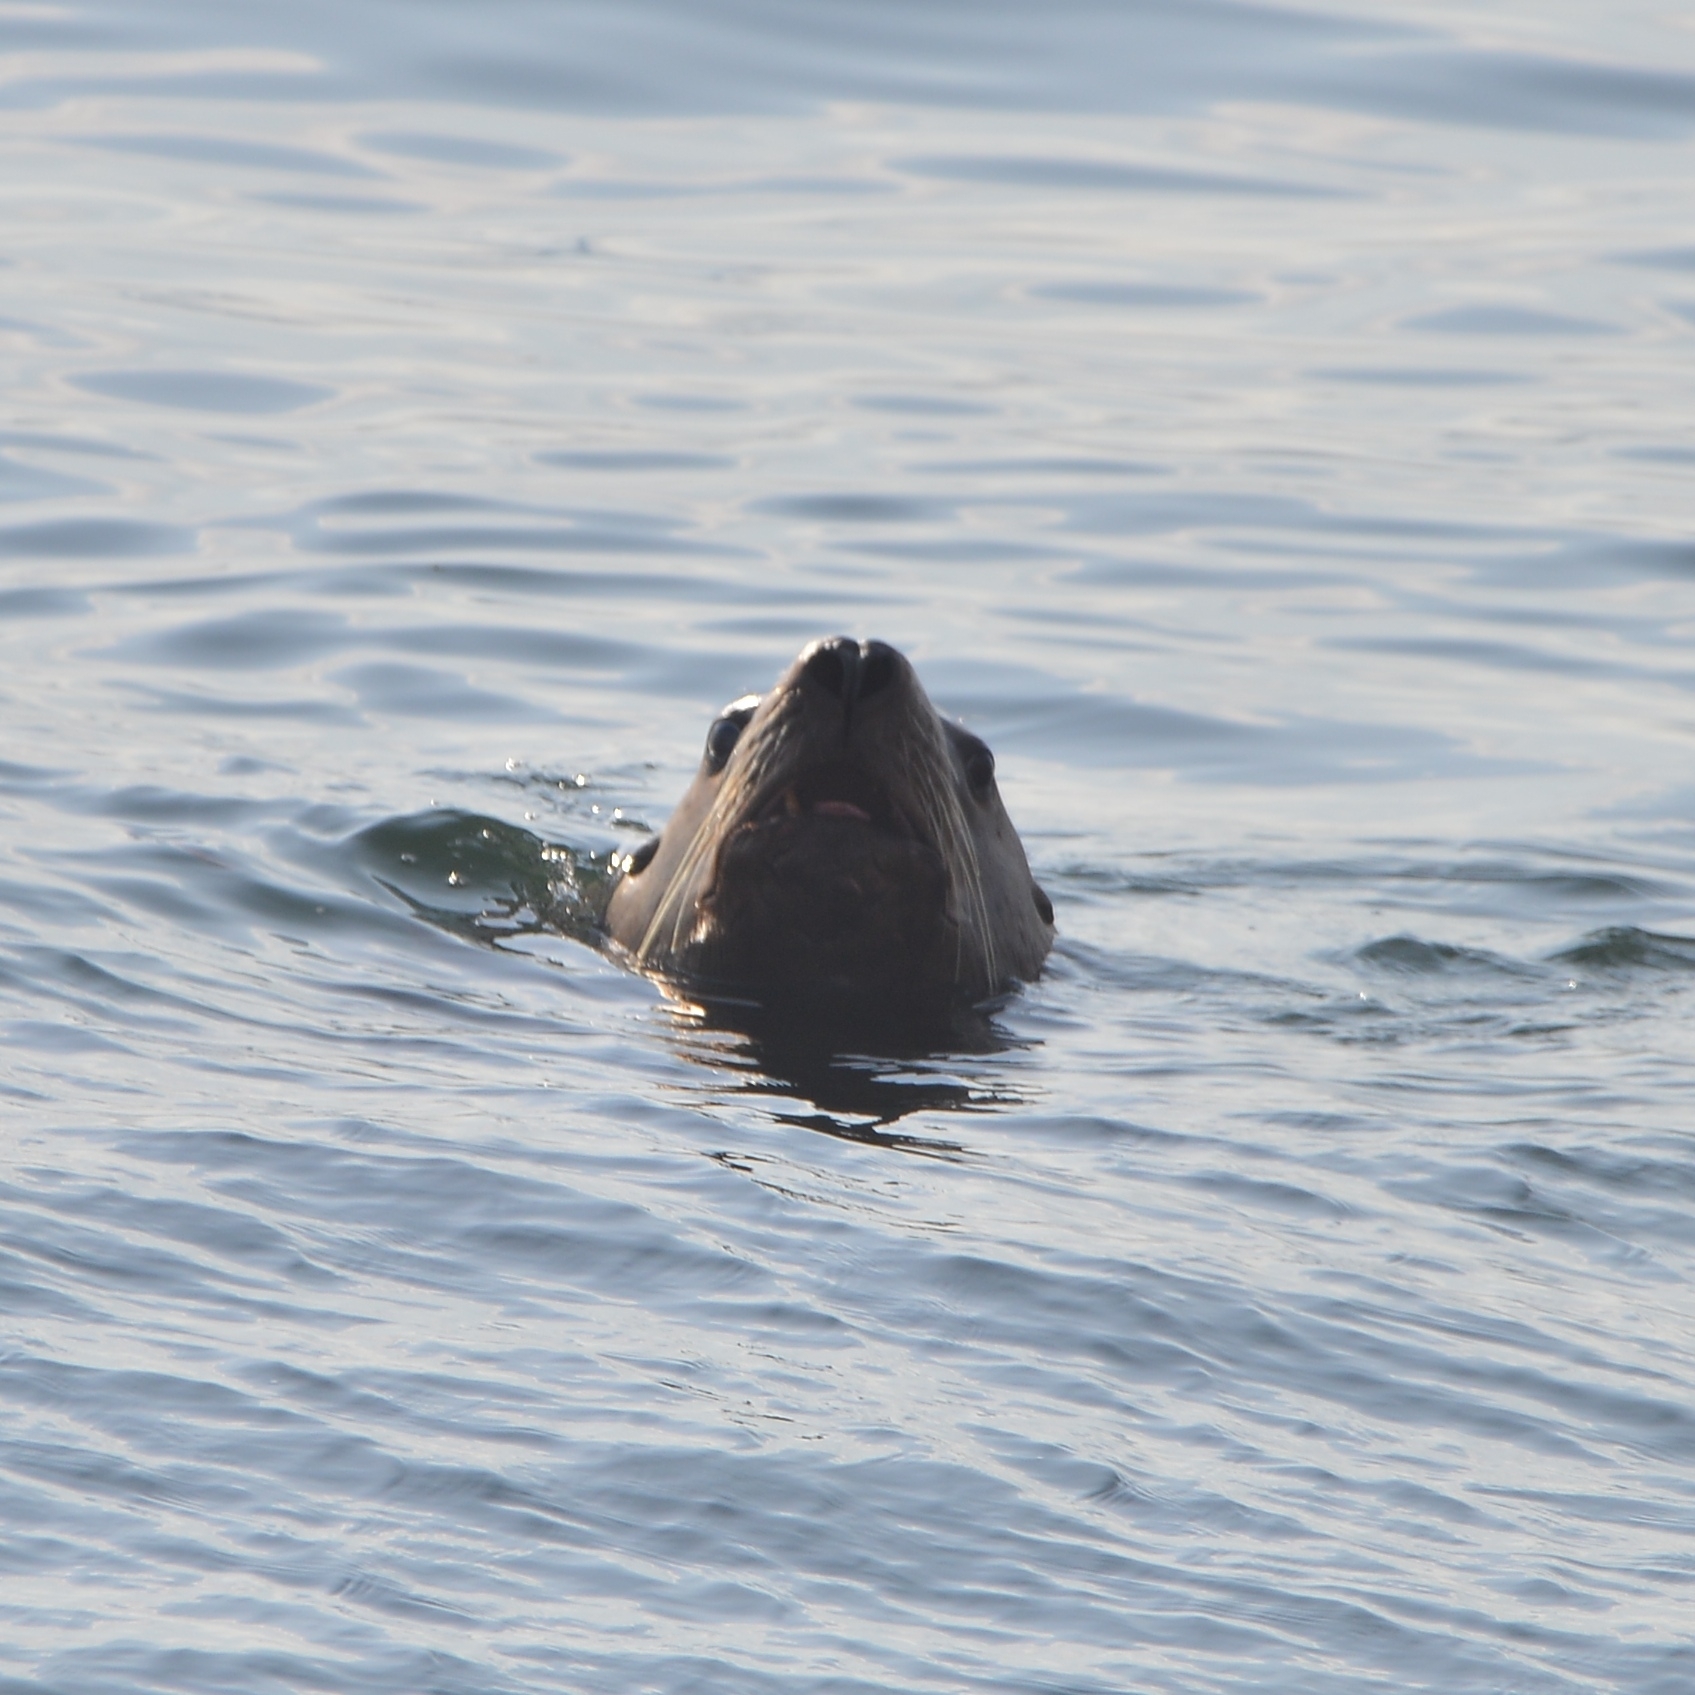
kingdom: Animalia
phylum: Chordata
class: Mammalia
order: Carnivora
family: Otariidae
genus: Eumetopias
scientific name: Eumetopias jubatus
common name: Steller sea lion
